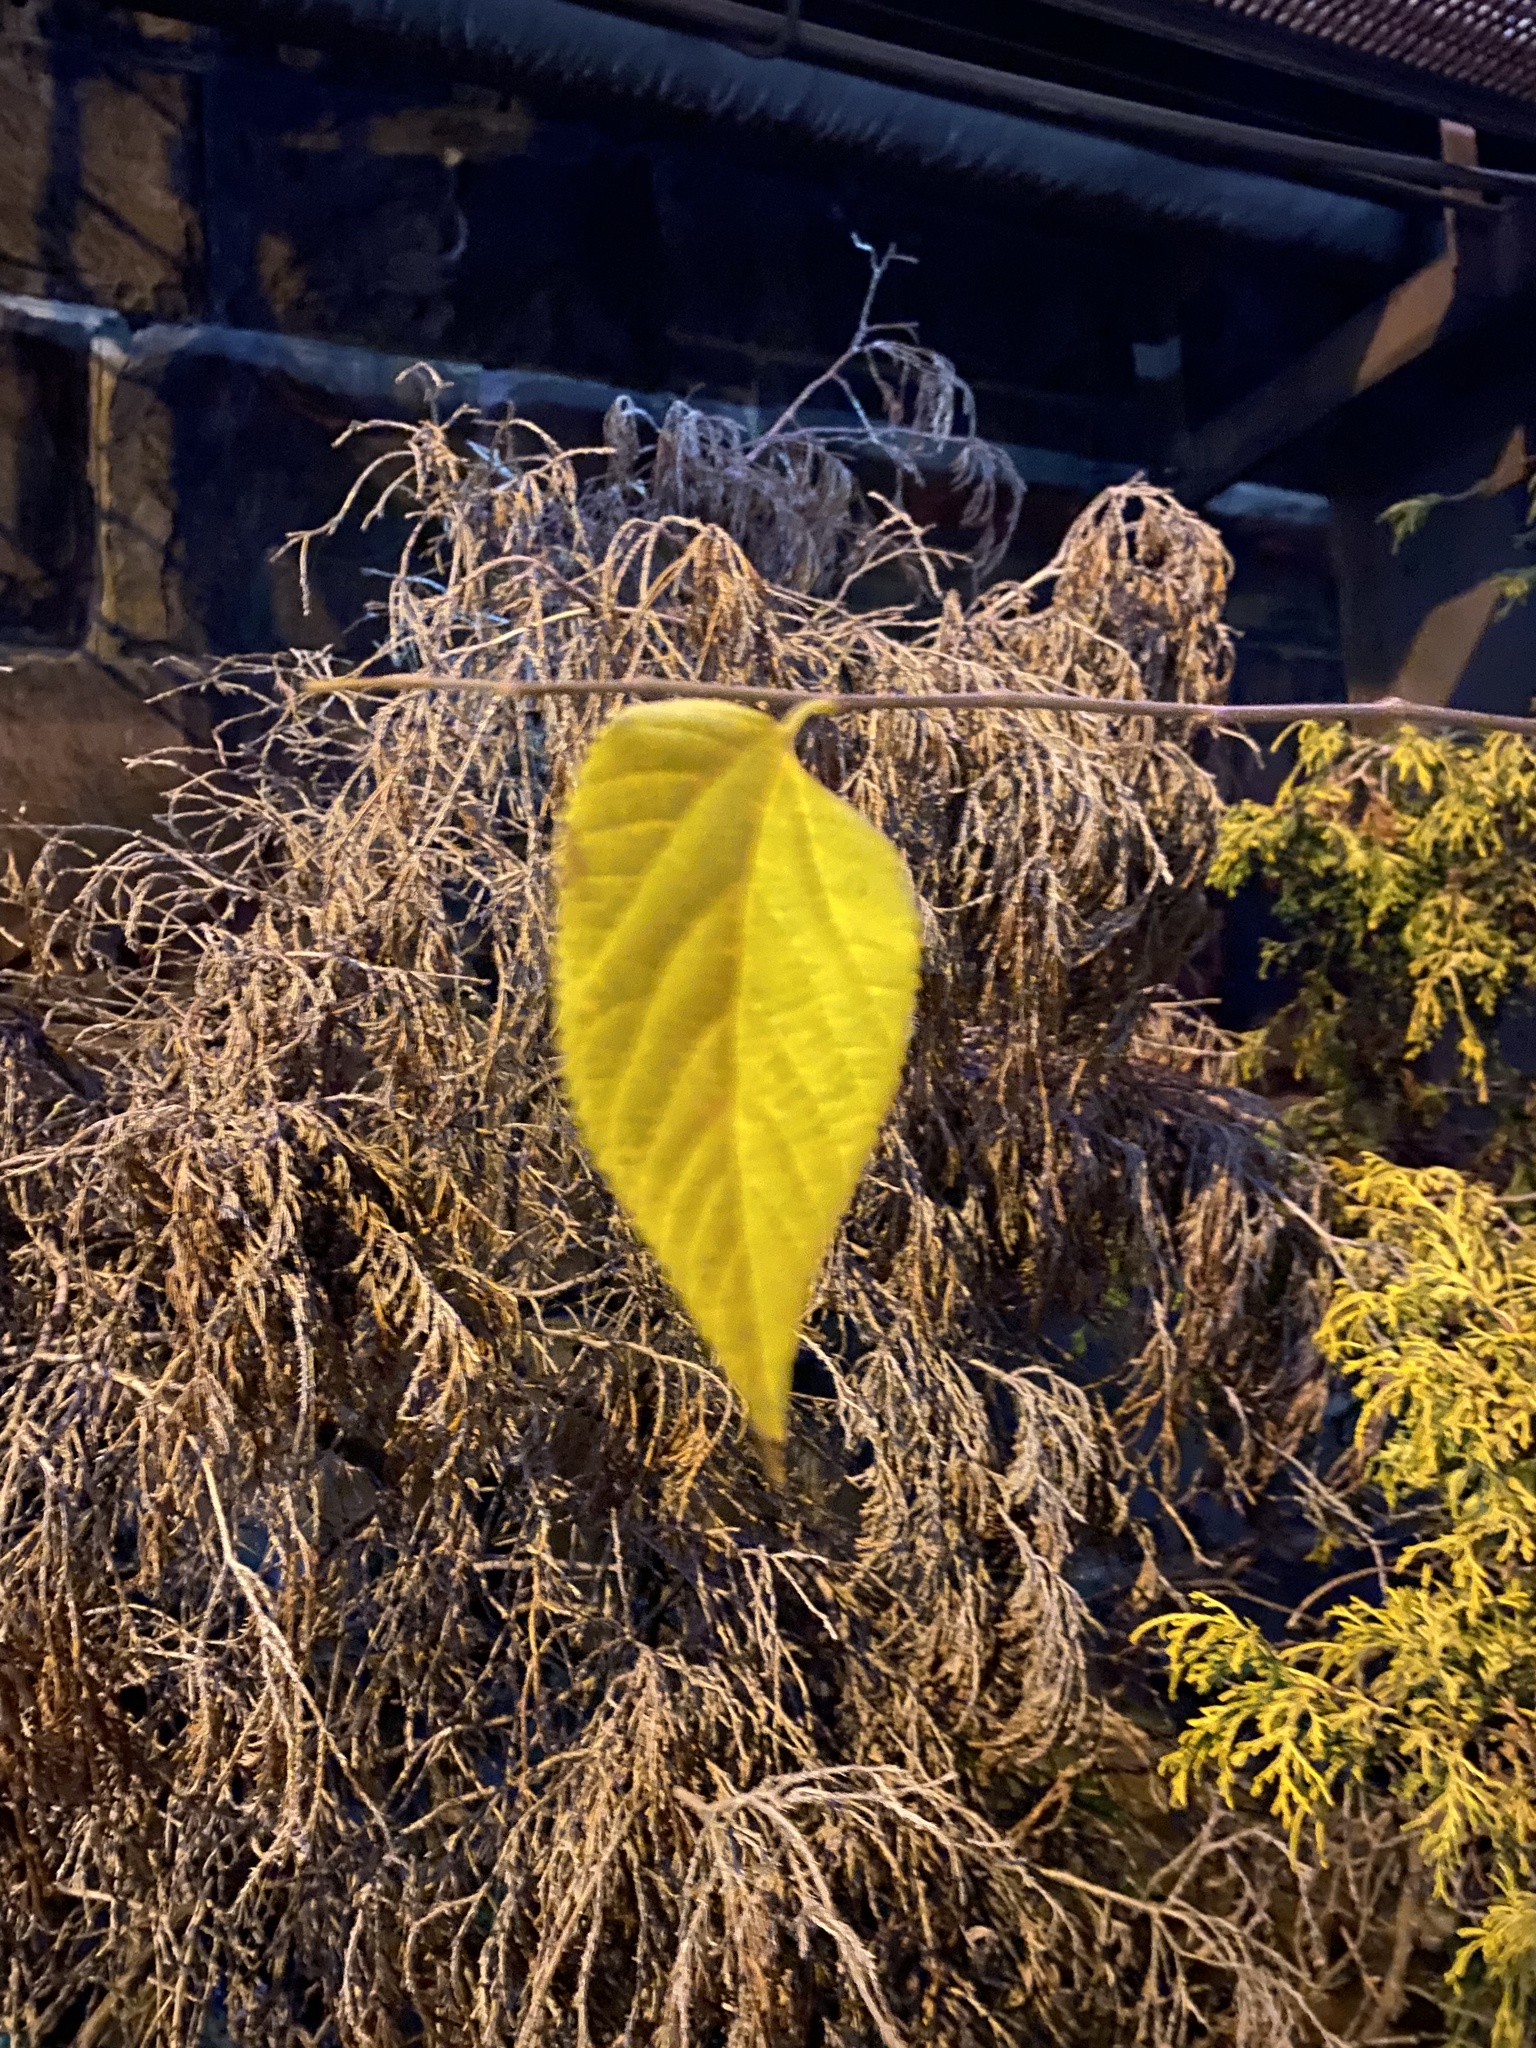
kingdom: Plantae
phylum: Tracheophyta
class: Magnoliopsida
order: Rosales
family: Cannabaceae
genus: Celtis
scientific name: Celtis occidentalis
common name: Common hackberry
